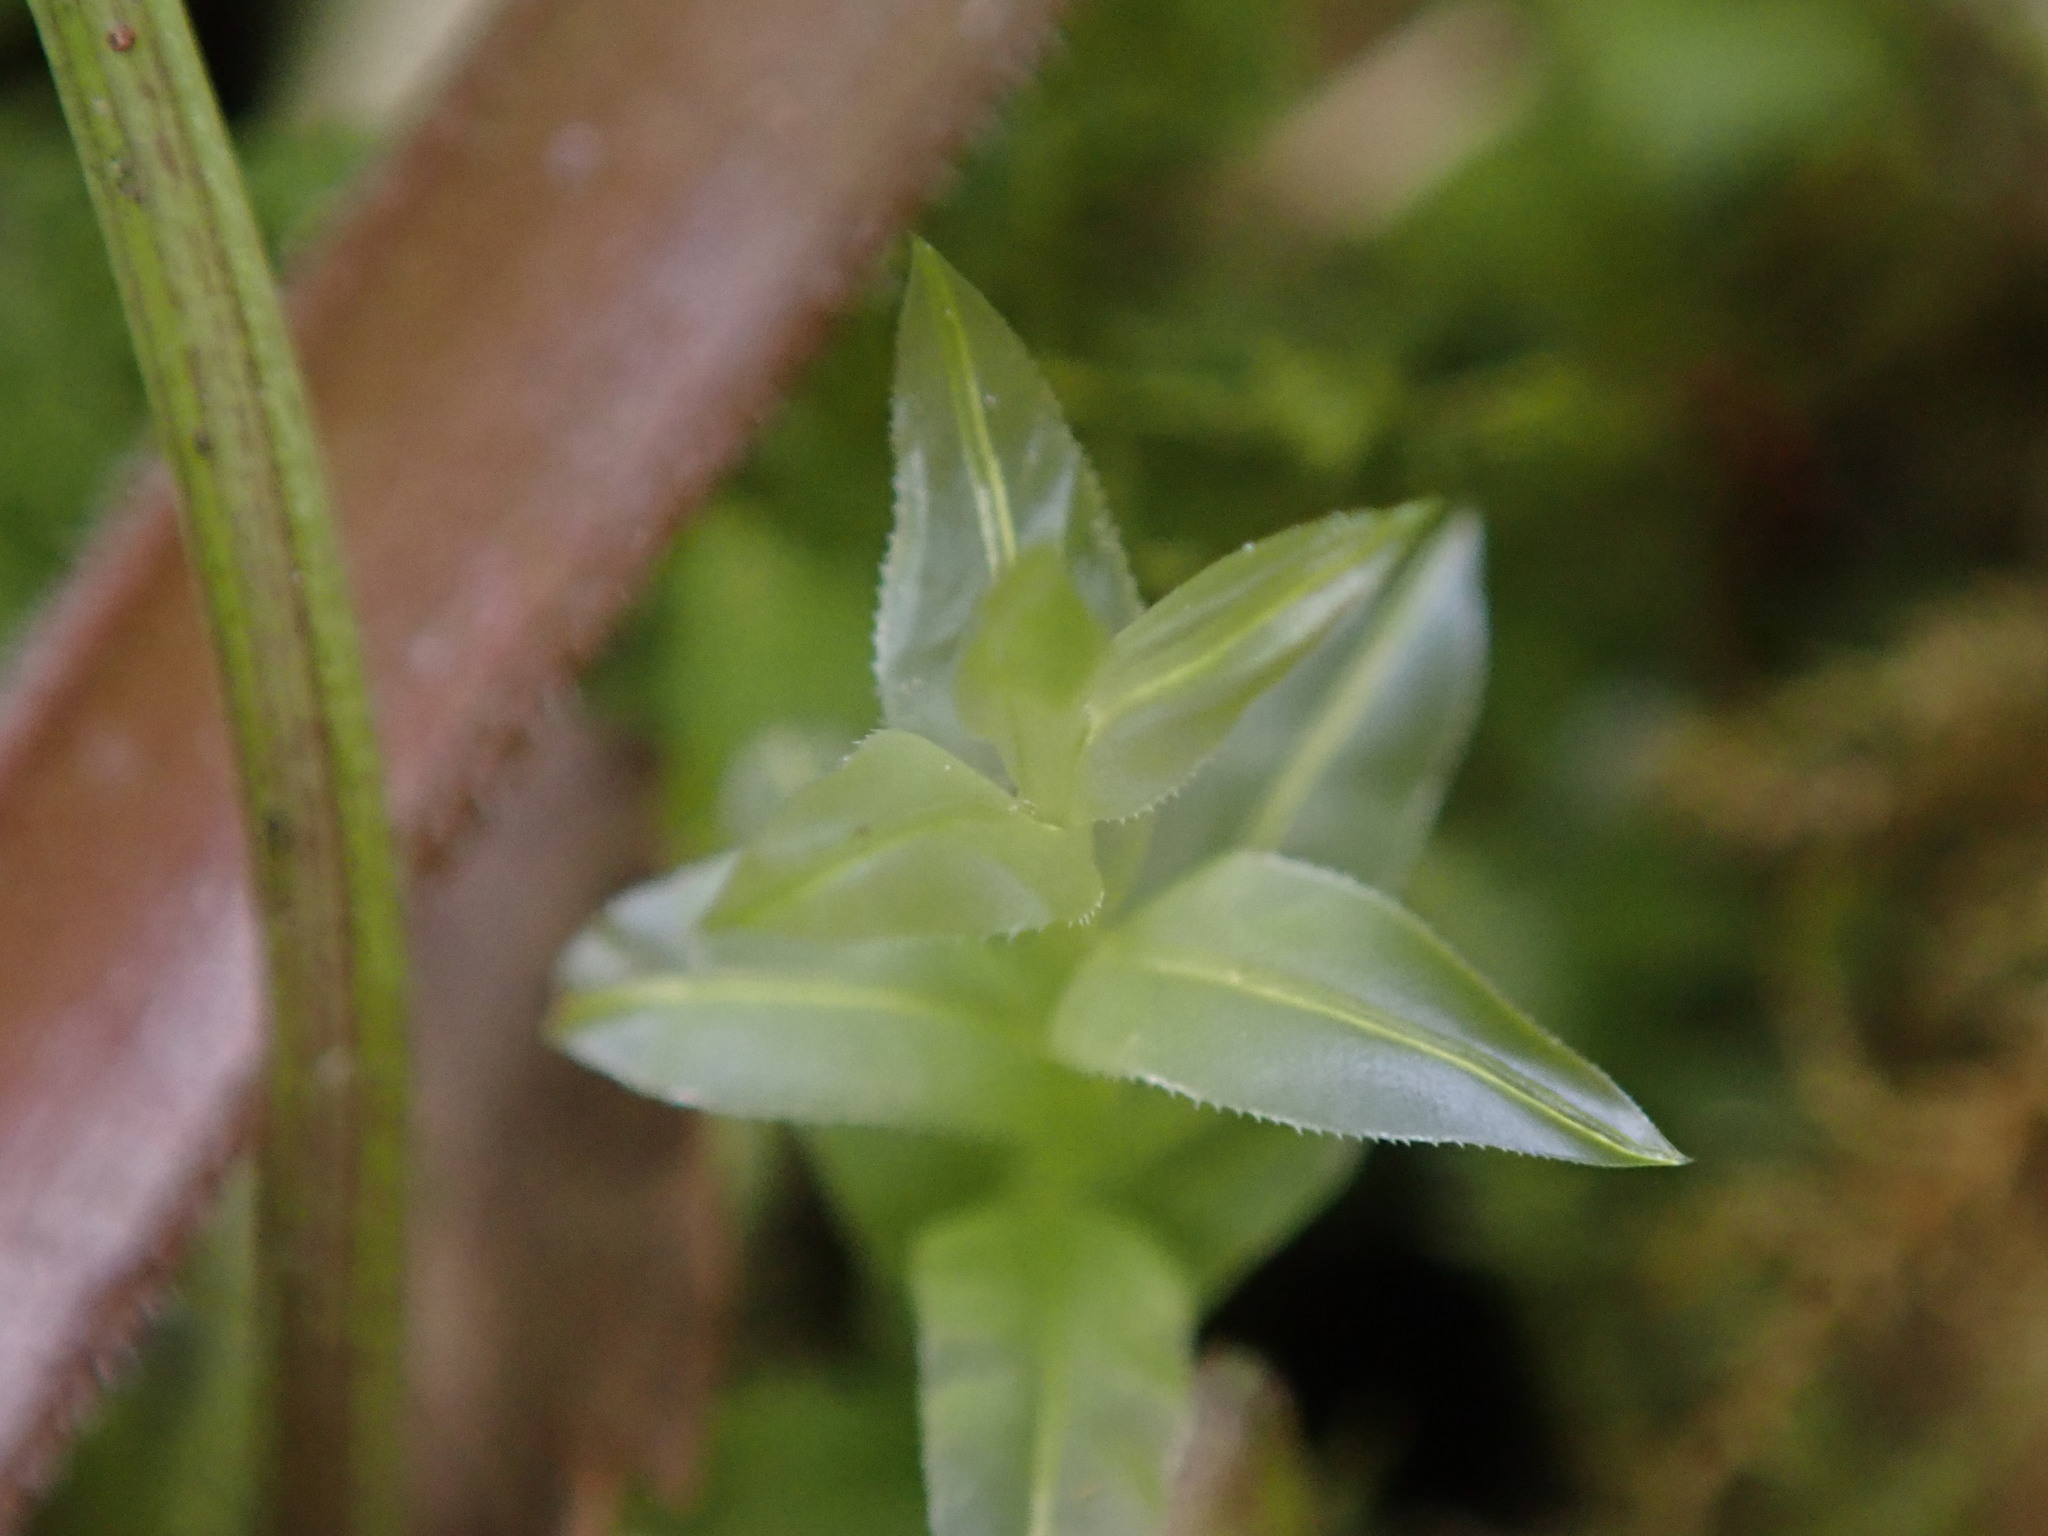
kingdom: Plantae
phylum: Bryophyta
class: Bryopsida
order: Bryales
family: Mniaceae
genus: Plagiomnium
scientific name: Plagiomnium undulatum
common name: Hart's-tongue thyme-moss
